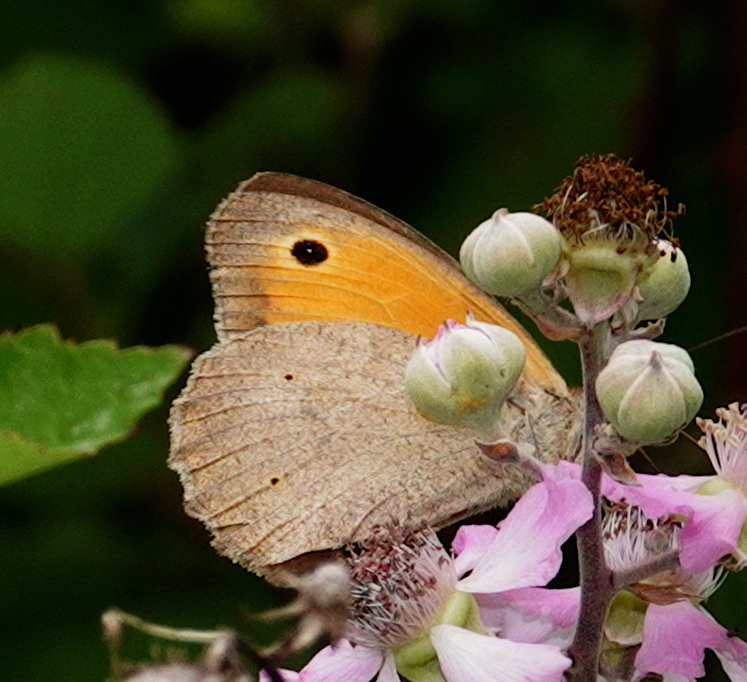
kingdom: Animalia
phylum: Arthropoda
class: Insecta
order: Lepidoptera
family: Nymphalidae
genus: Maniola
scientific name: Maniola jurtina
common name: Meadow brown
